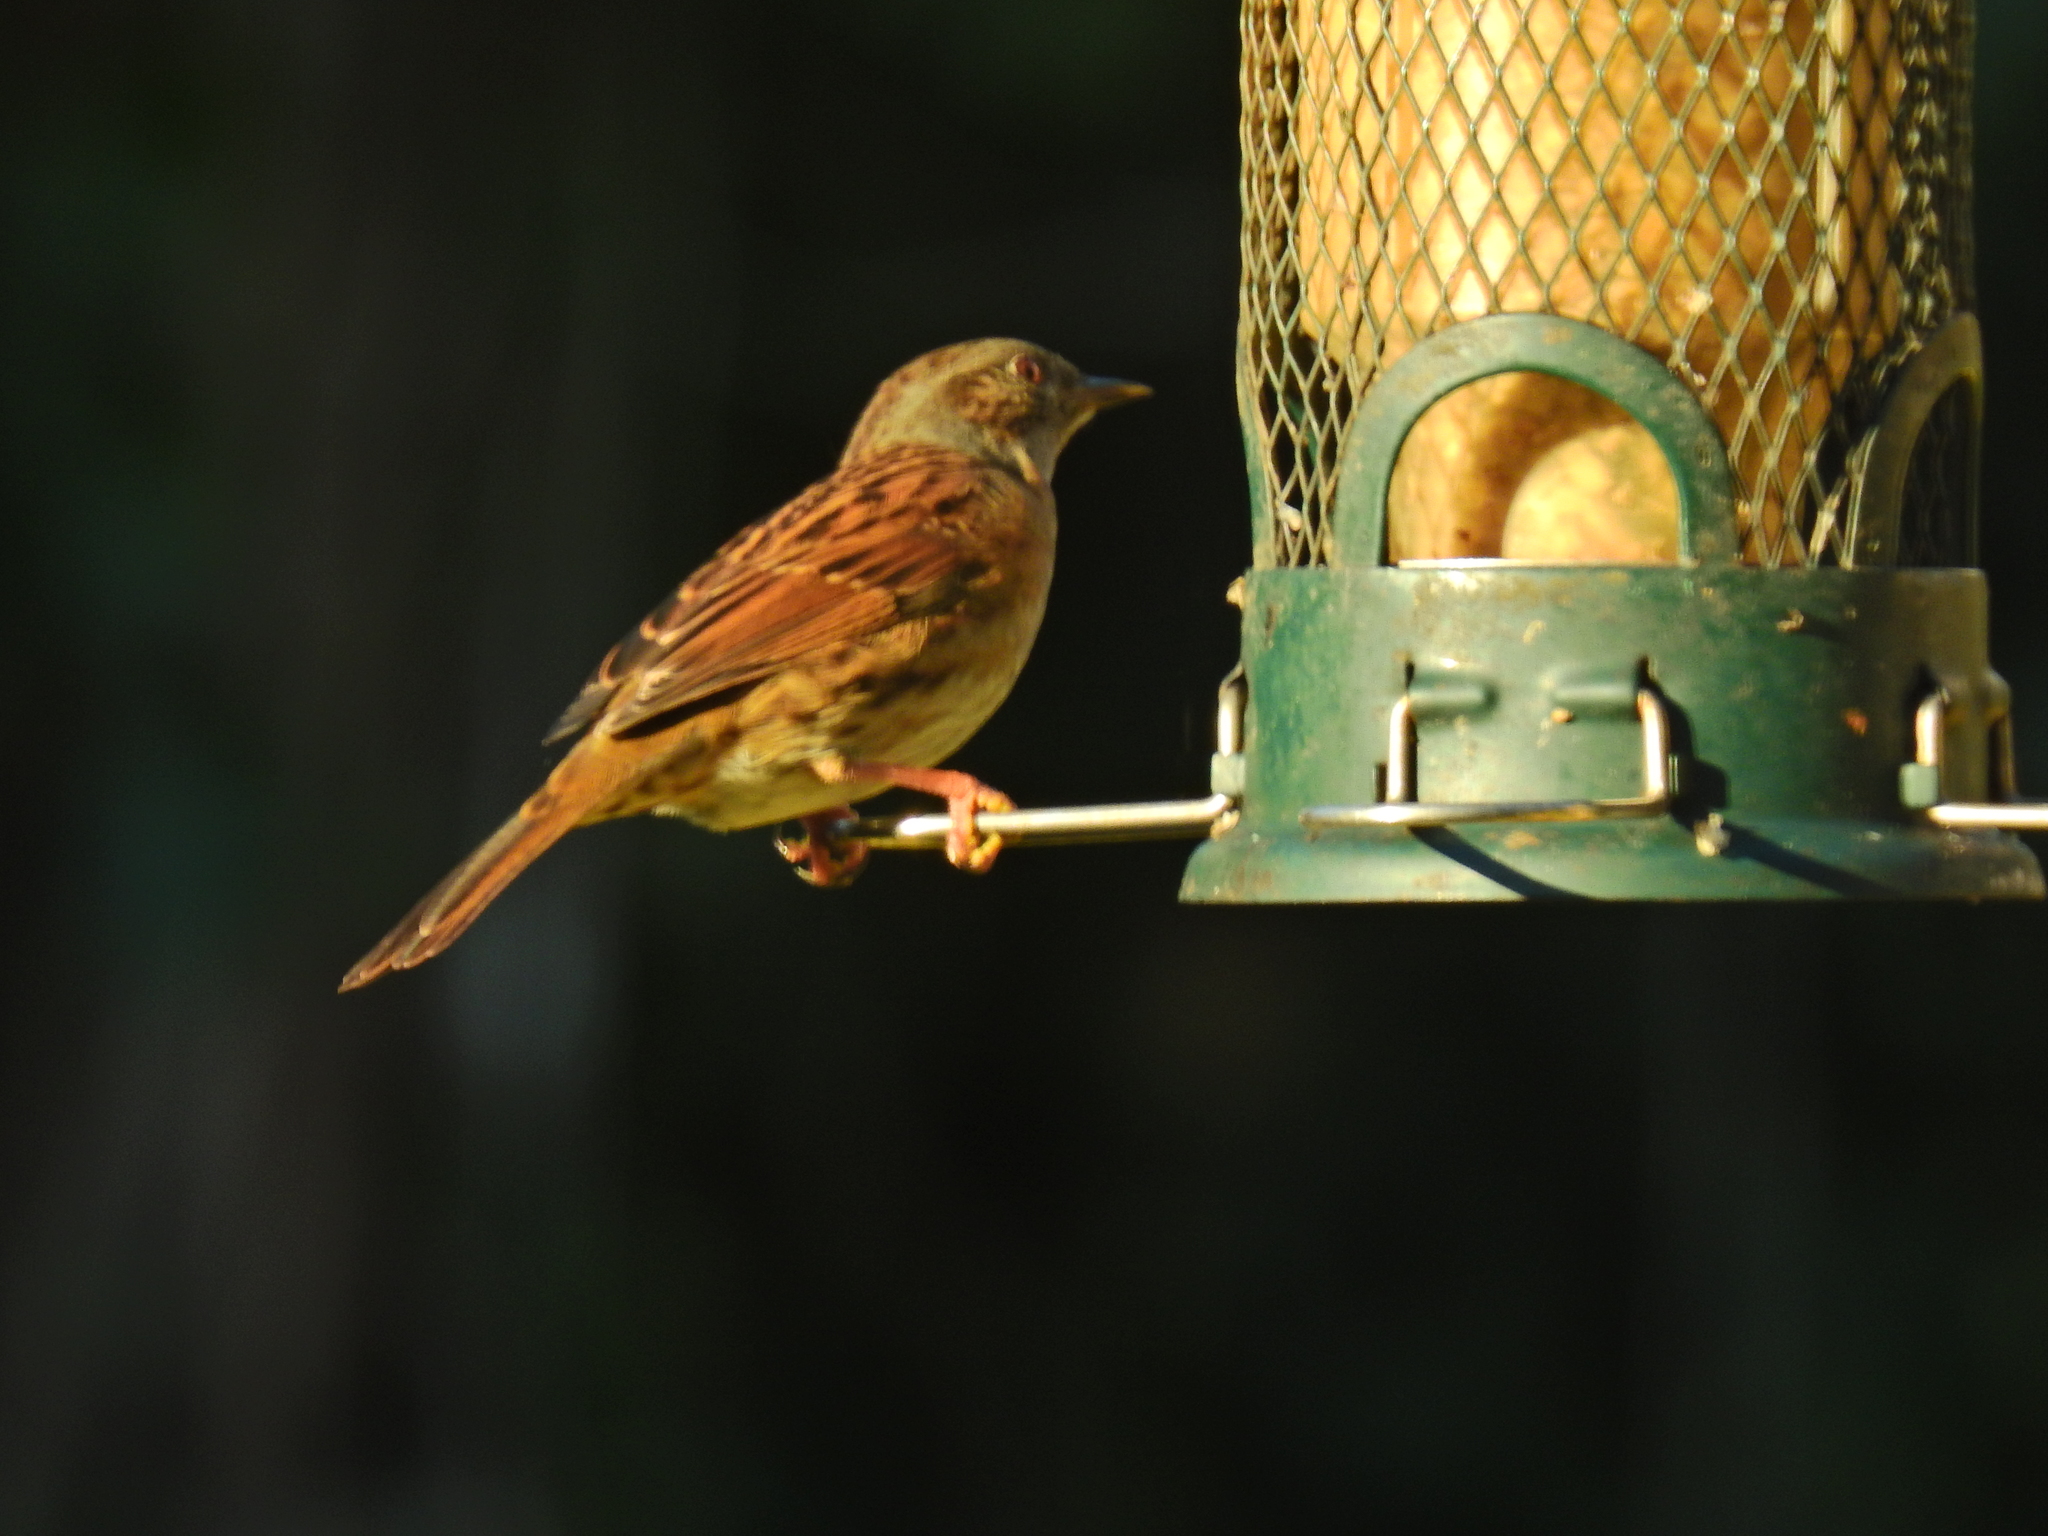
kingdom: Animalia
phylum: Chordata
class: Aves
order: Passeriformes
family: Prunellidae
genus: Prunella
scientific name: Prunella modularis
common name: Dunnock
